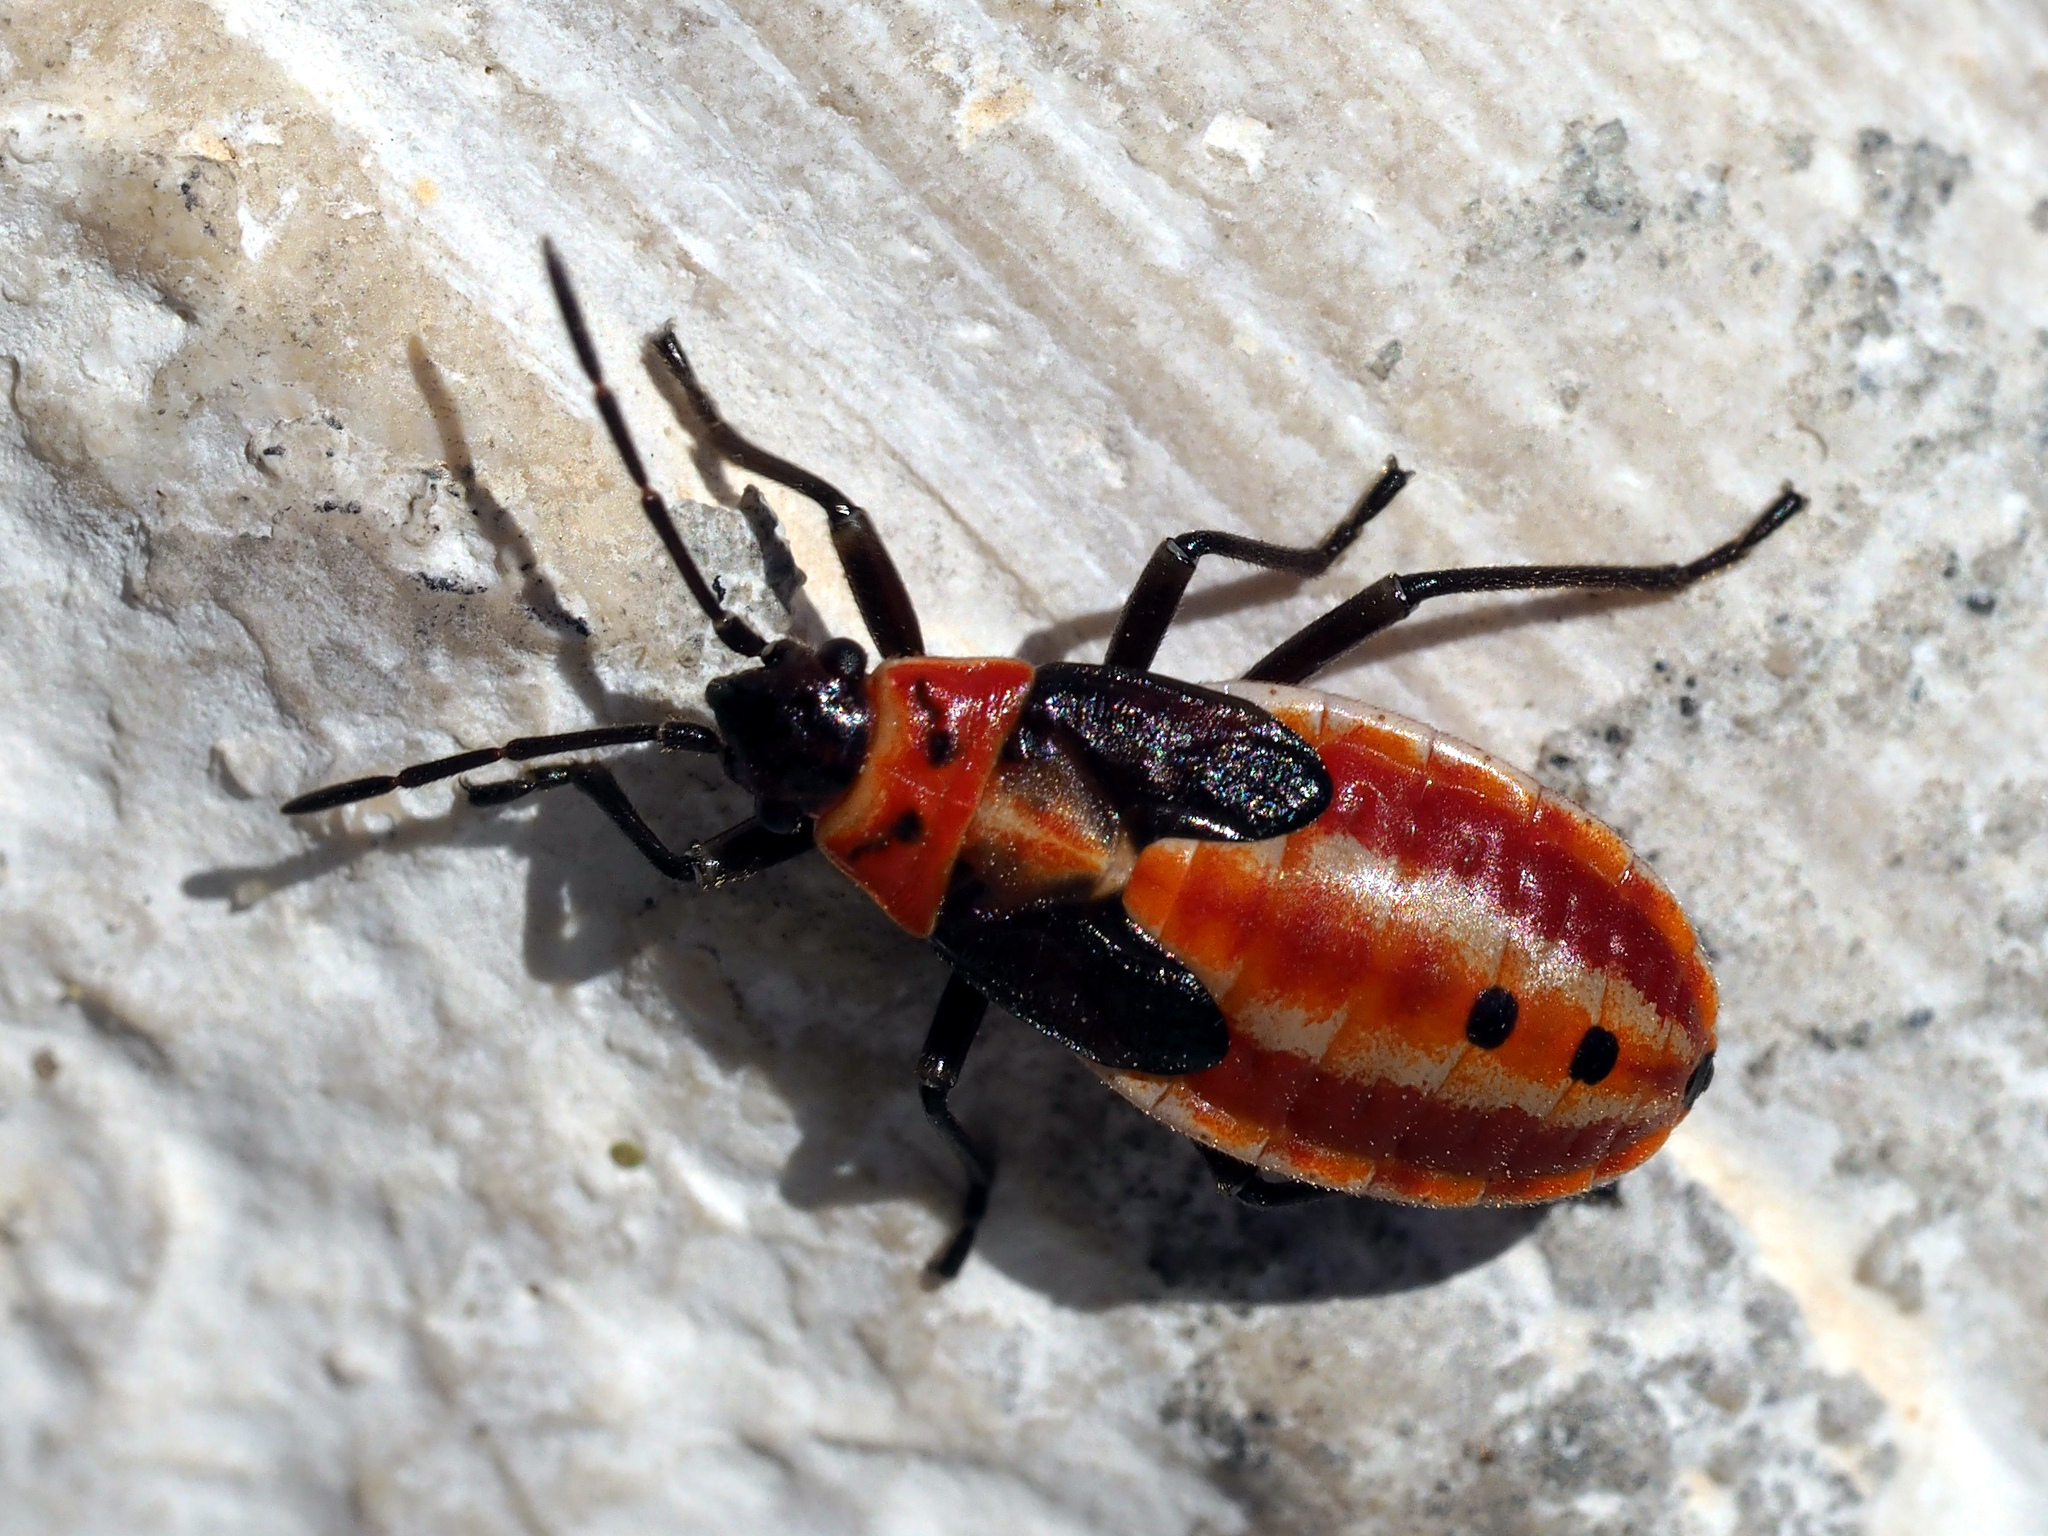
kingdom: Animalia
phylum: Arthropoda
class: Insecta
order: Hemiptera
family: Lygaeidae
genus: Lygaeus
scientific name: Lygaeus creticus
